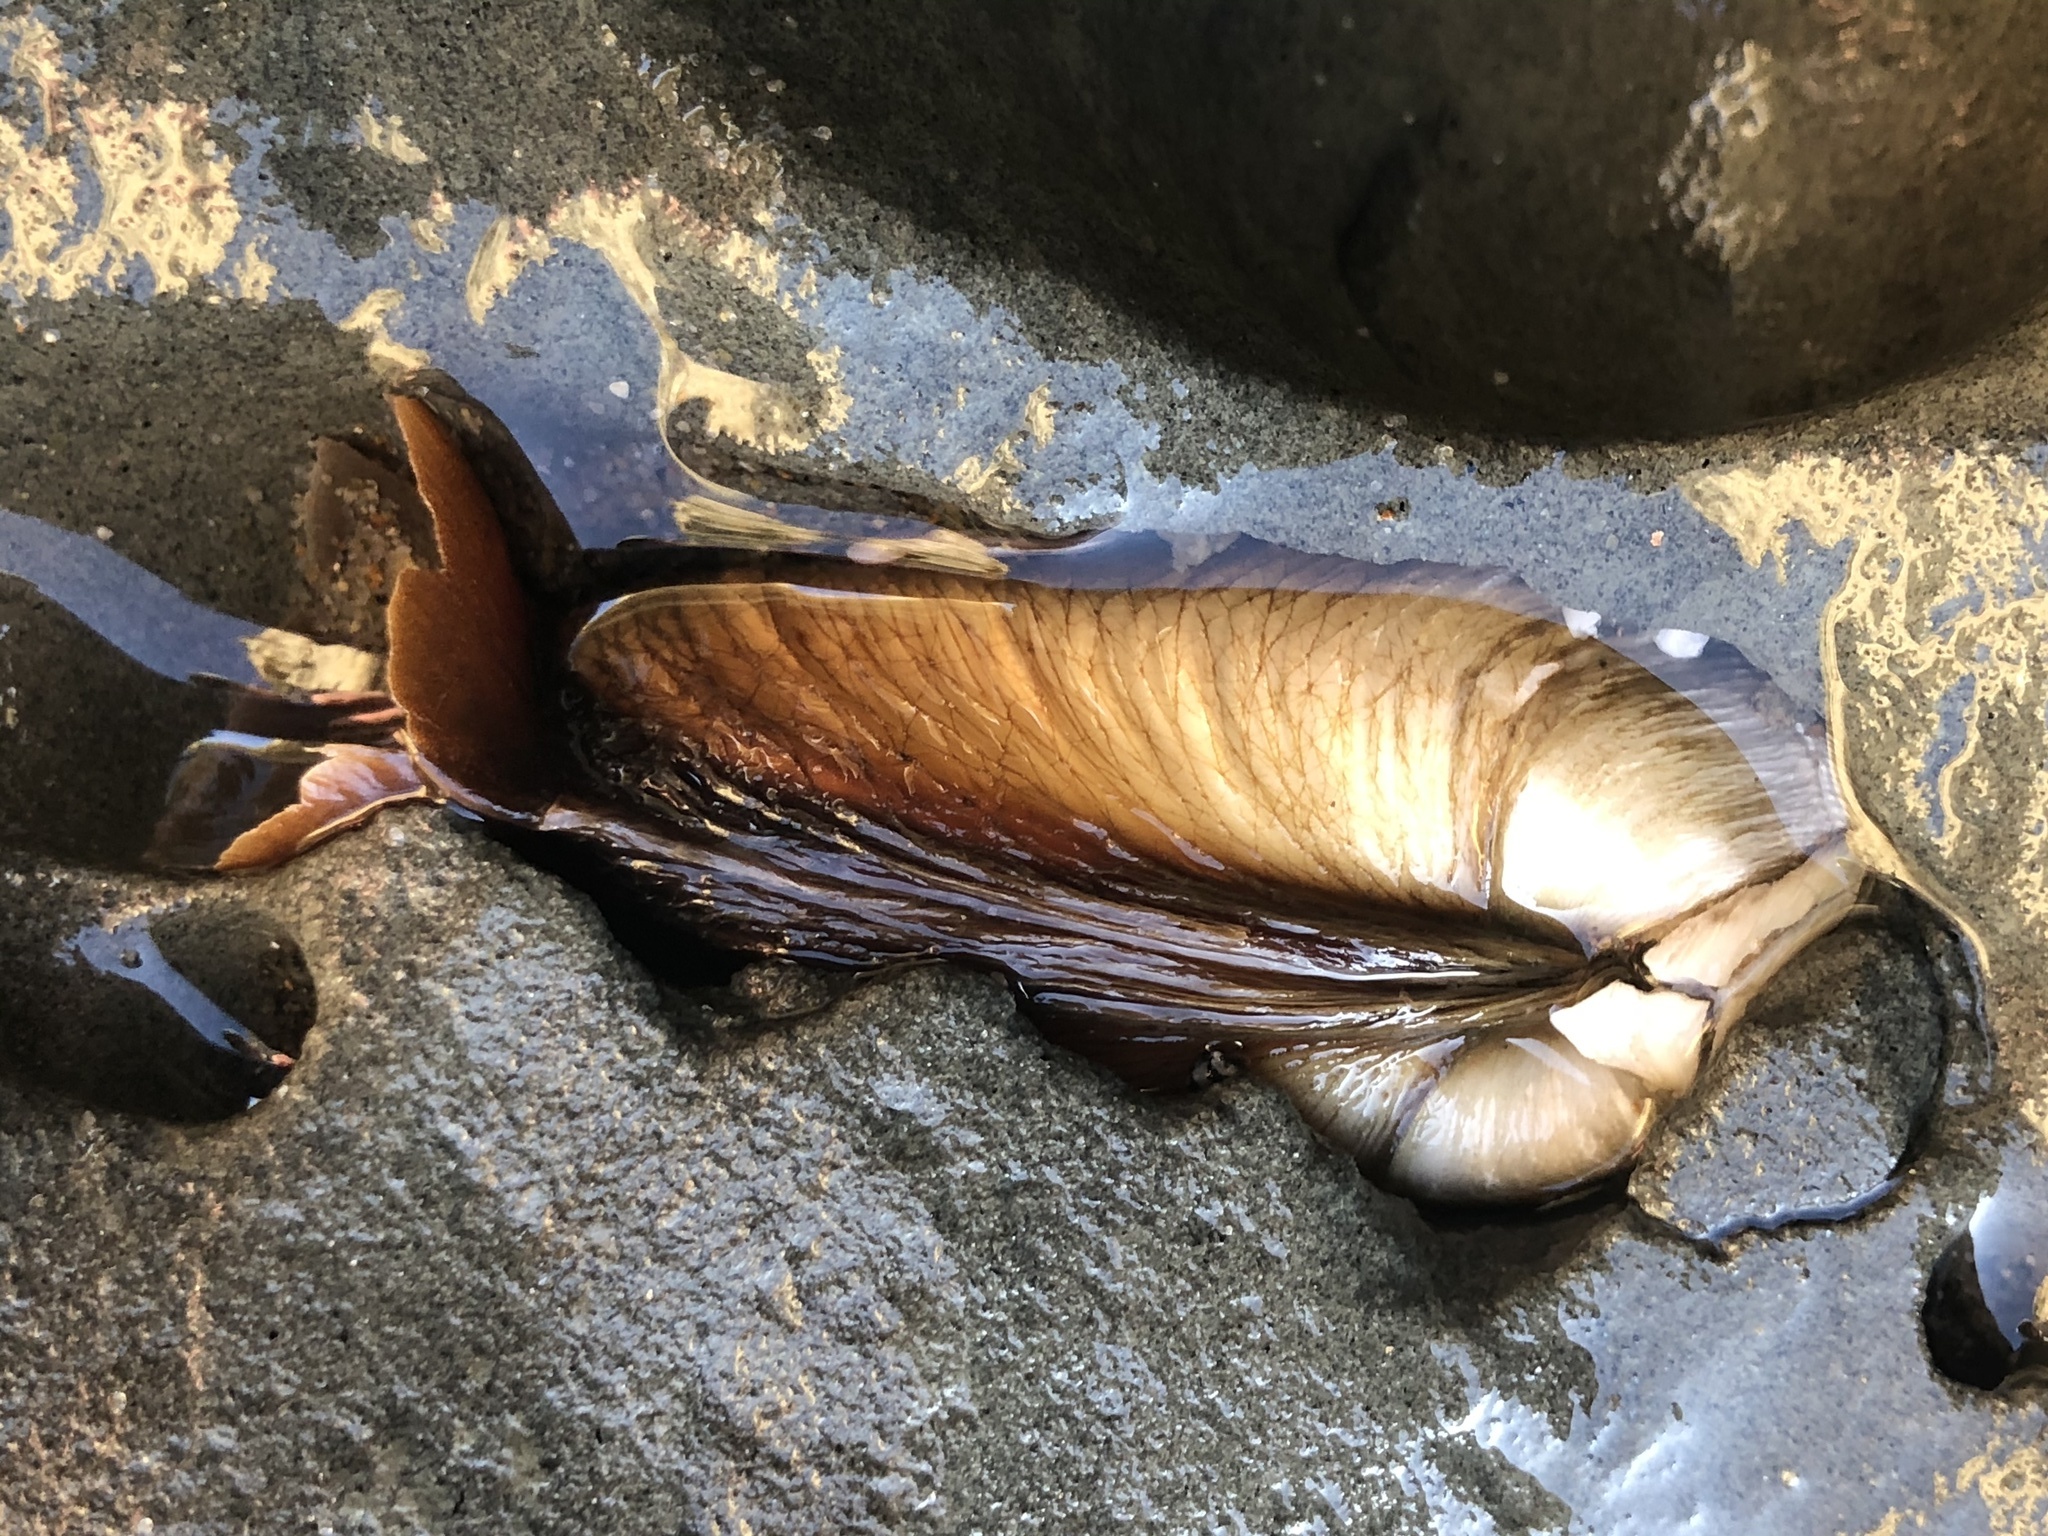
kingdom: Animalia
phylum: Mollusca
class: Bivalvia
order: Myida
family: Pholadidae
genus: Penitella
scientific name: Penitella penita
